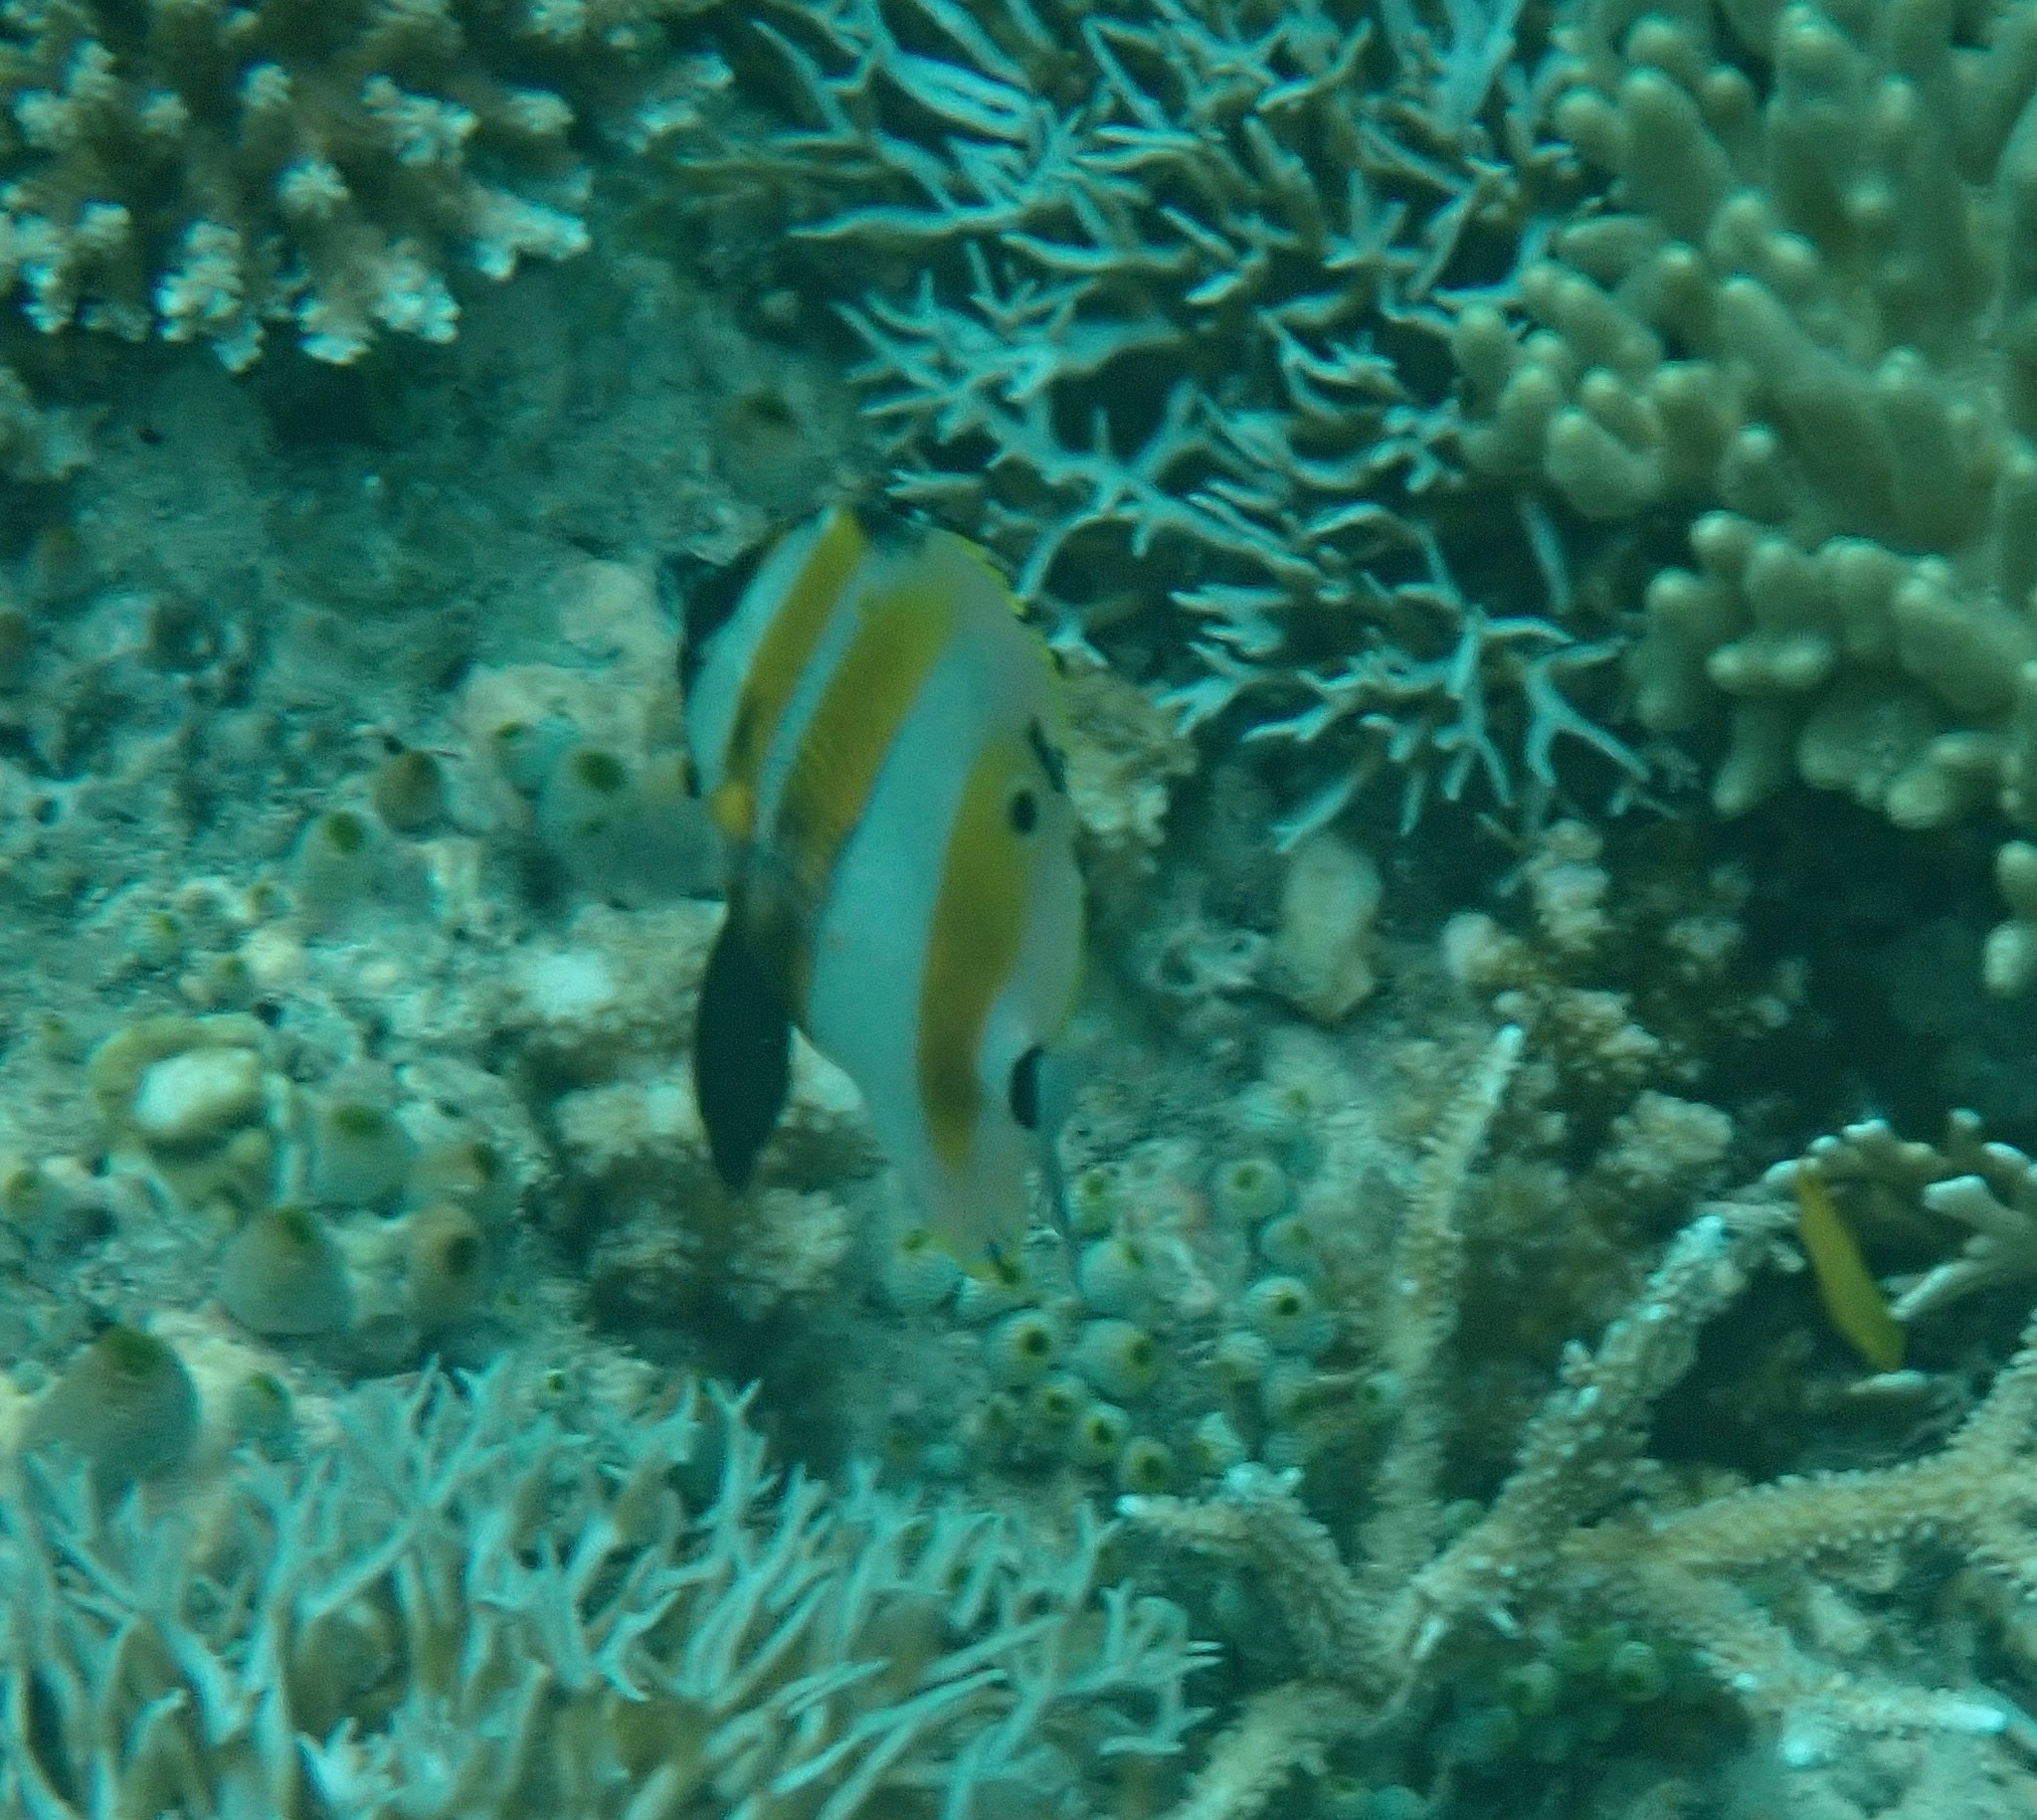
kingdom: Animalia
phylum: Chordata
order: Perciformes
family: Chaetodontidae
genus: Coradion
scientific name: Coradion chrysozonus
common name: Orange-banded coralfish
